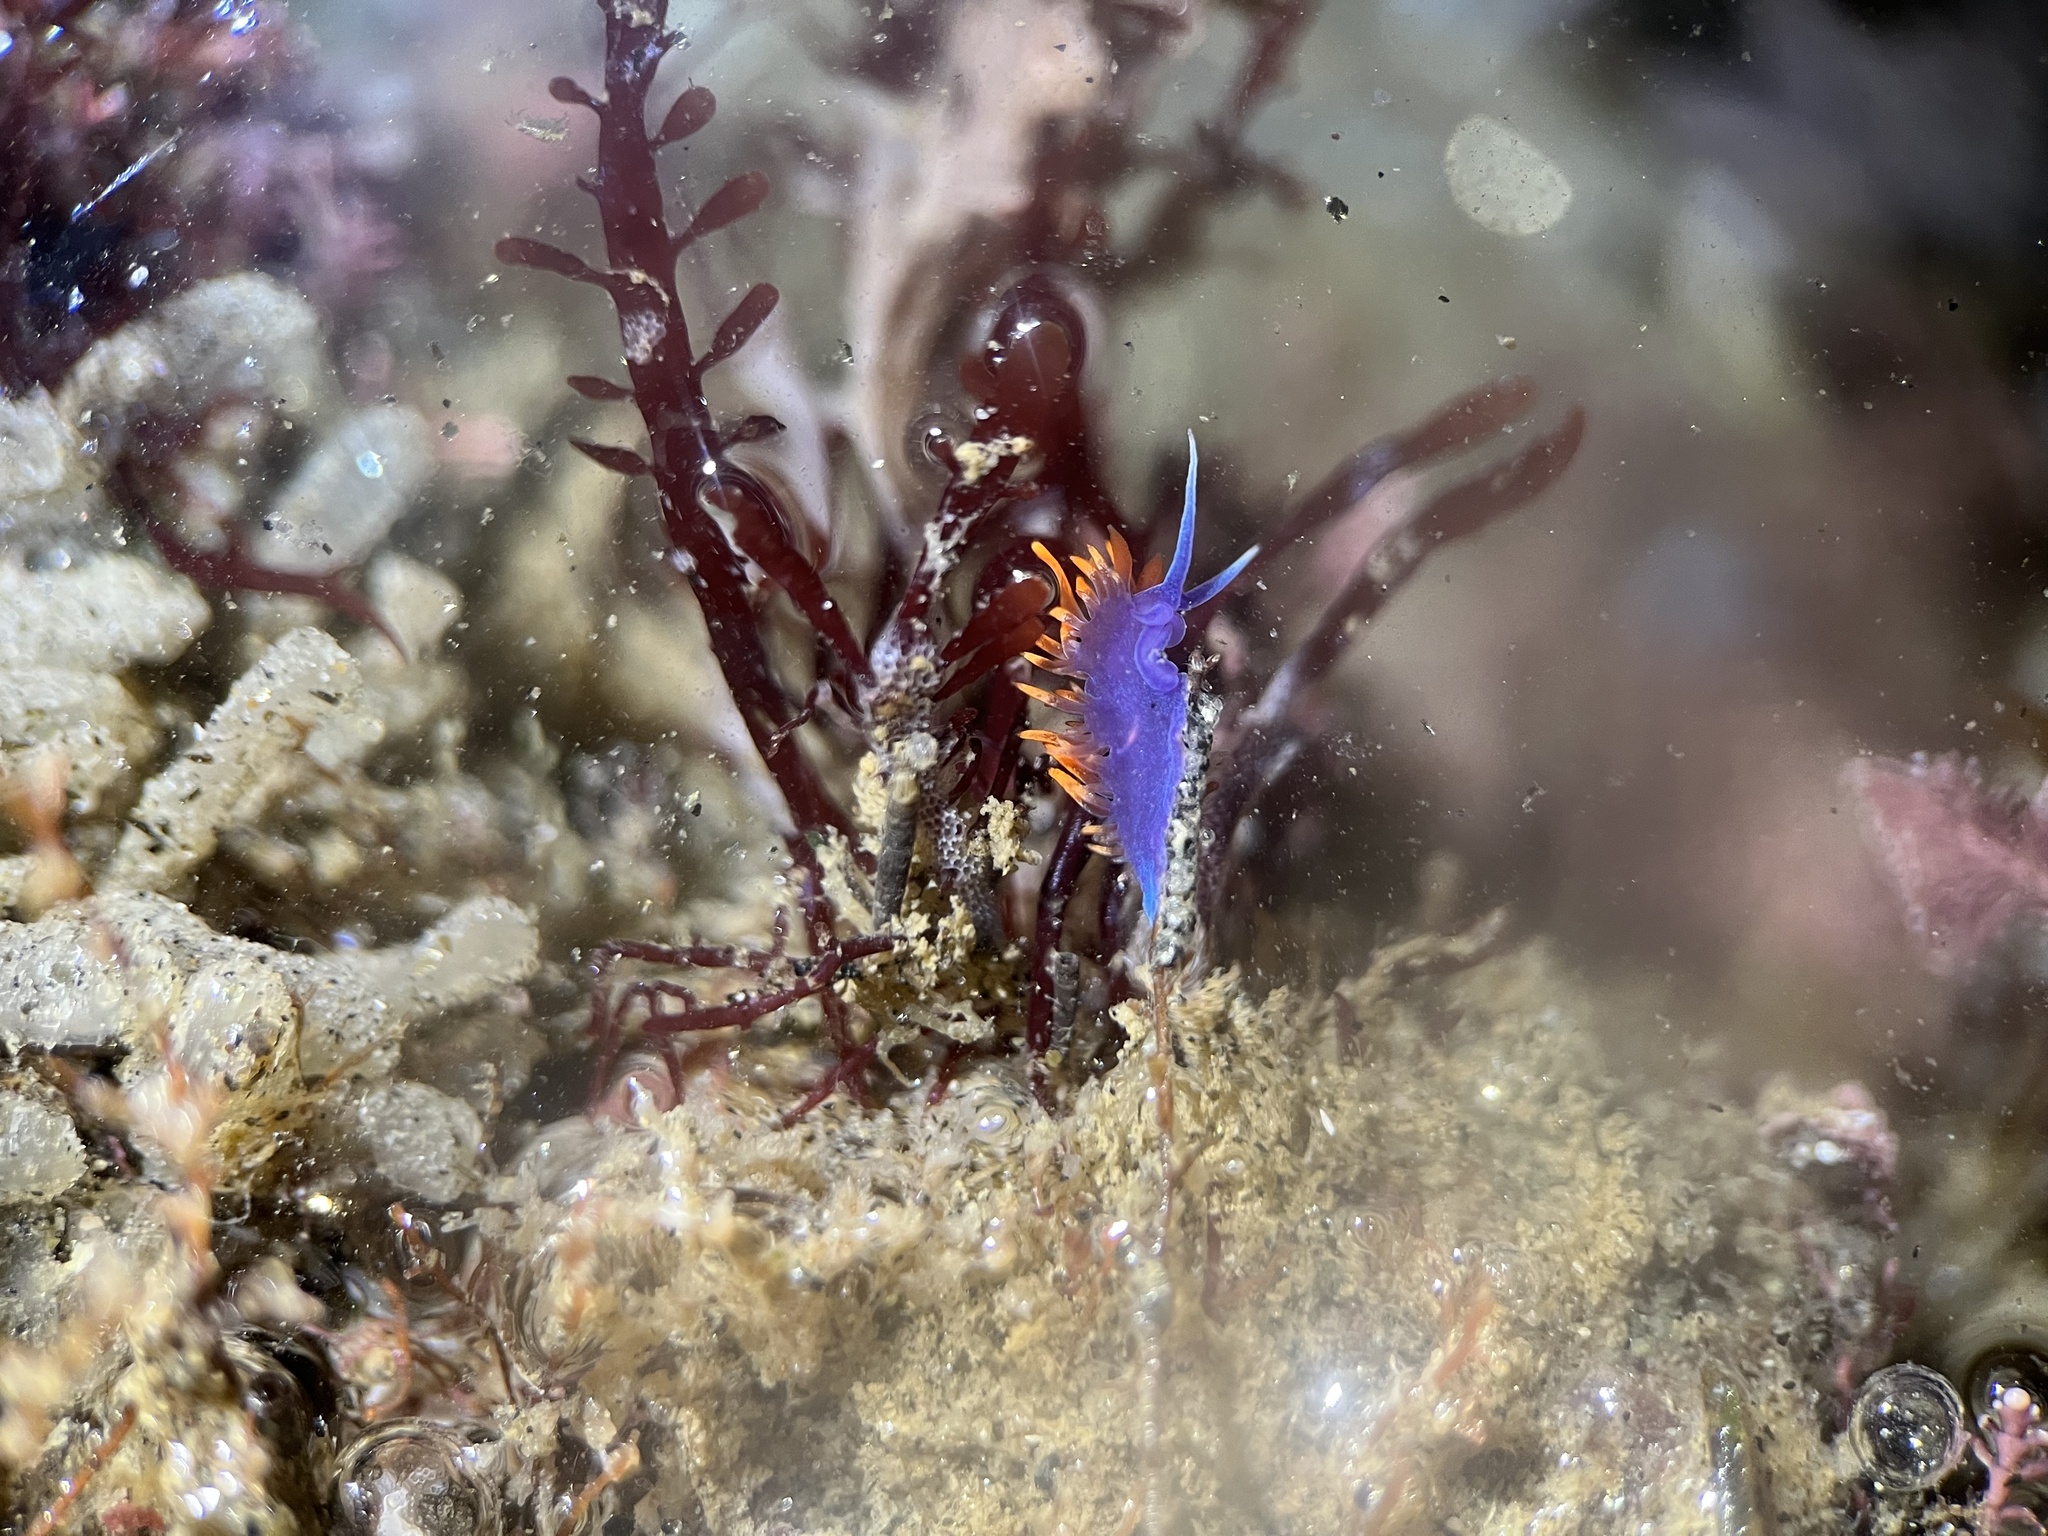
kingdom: Animalia
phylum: Mollusca
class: Gastropoda
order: Nudibranchia
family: Flabellinopsidae
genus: Flabellinopsis
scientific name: Flabellinopsis iodinea
